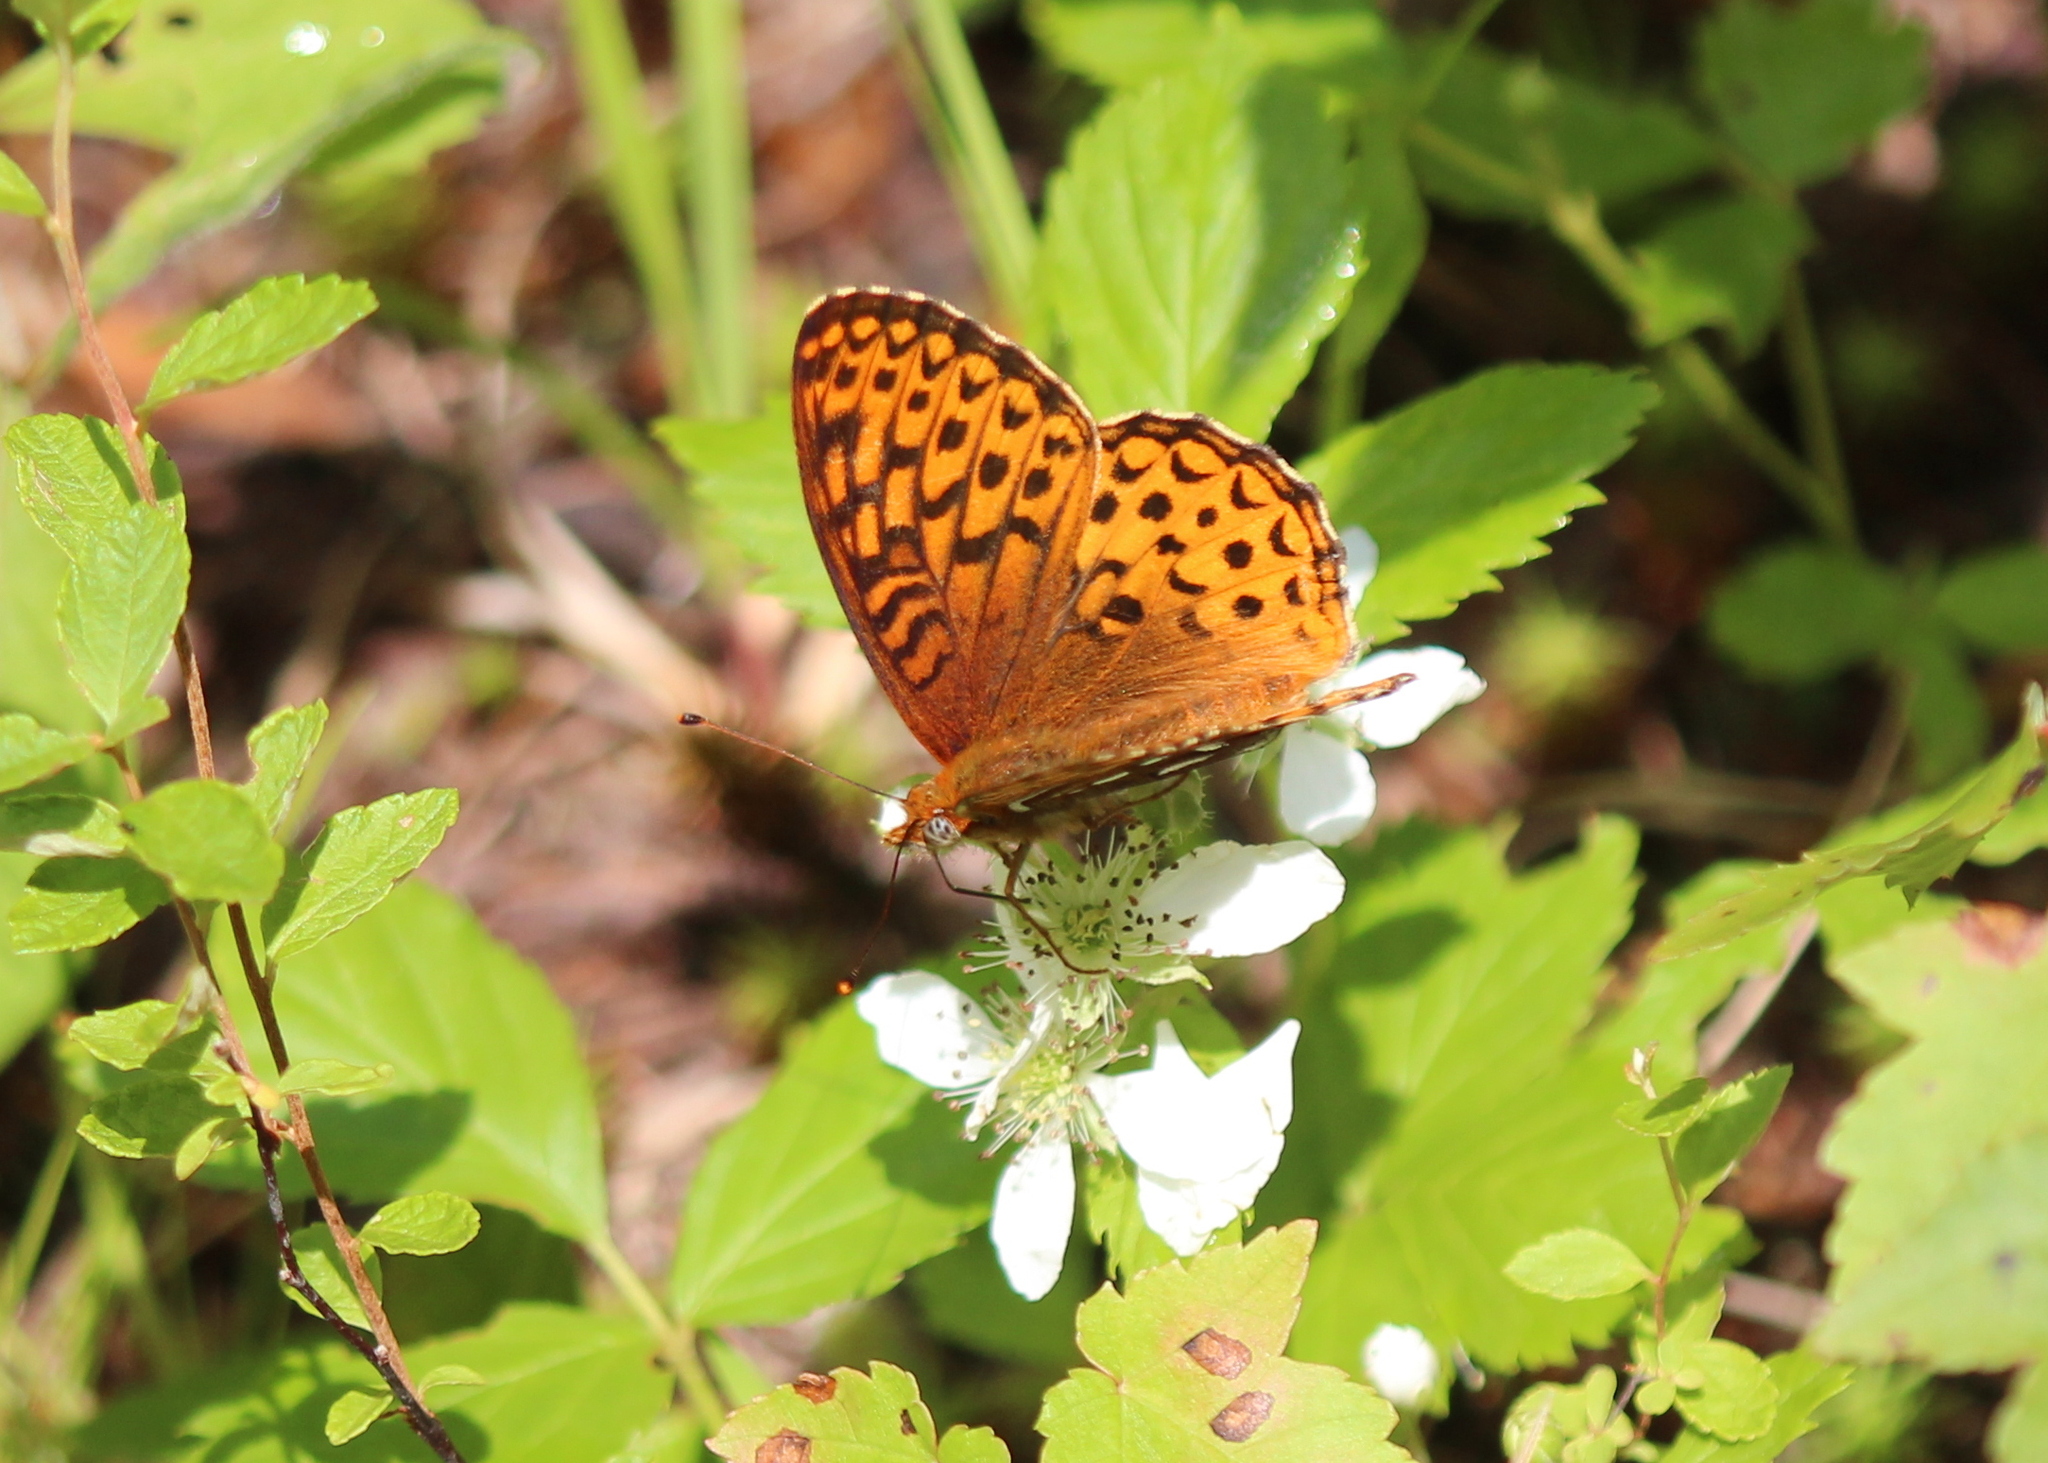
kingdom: Animalia
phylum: Arthropoda
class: Insecta
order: Lepidoptera
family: Nymphalidae
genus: Speyeria
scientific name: Speyeria atlantis
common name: Atlantis fritillary
